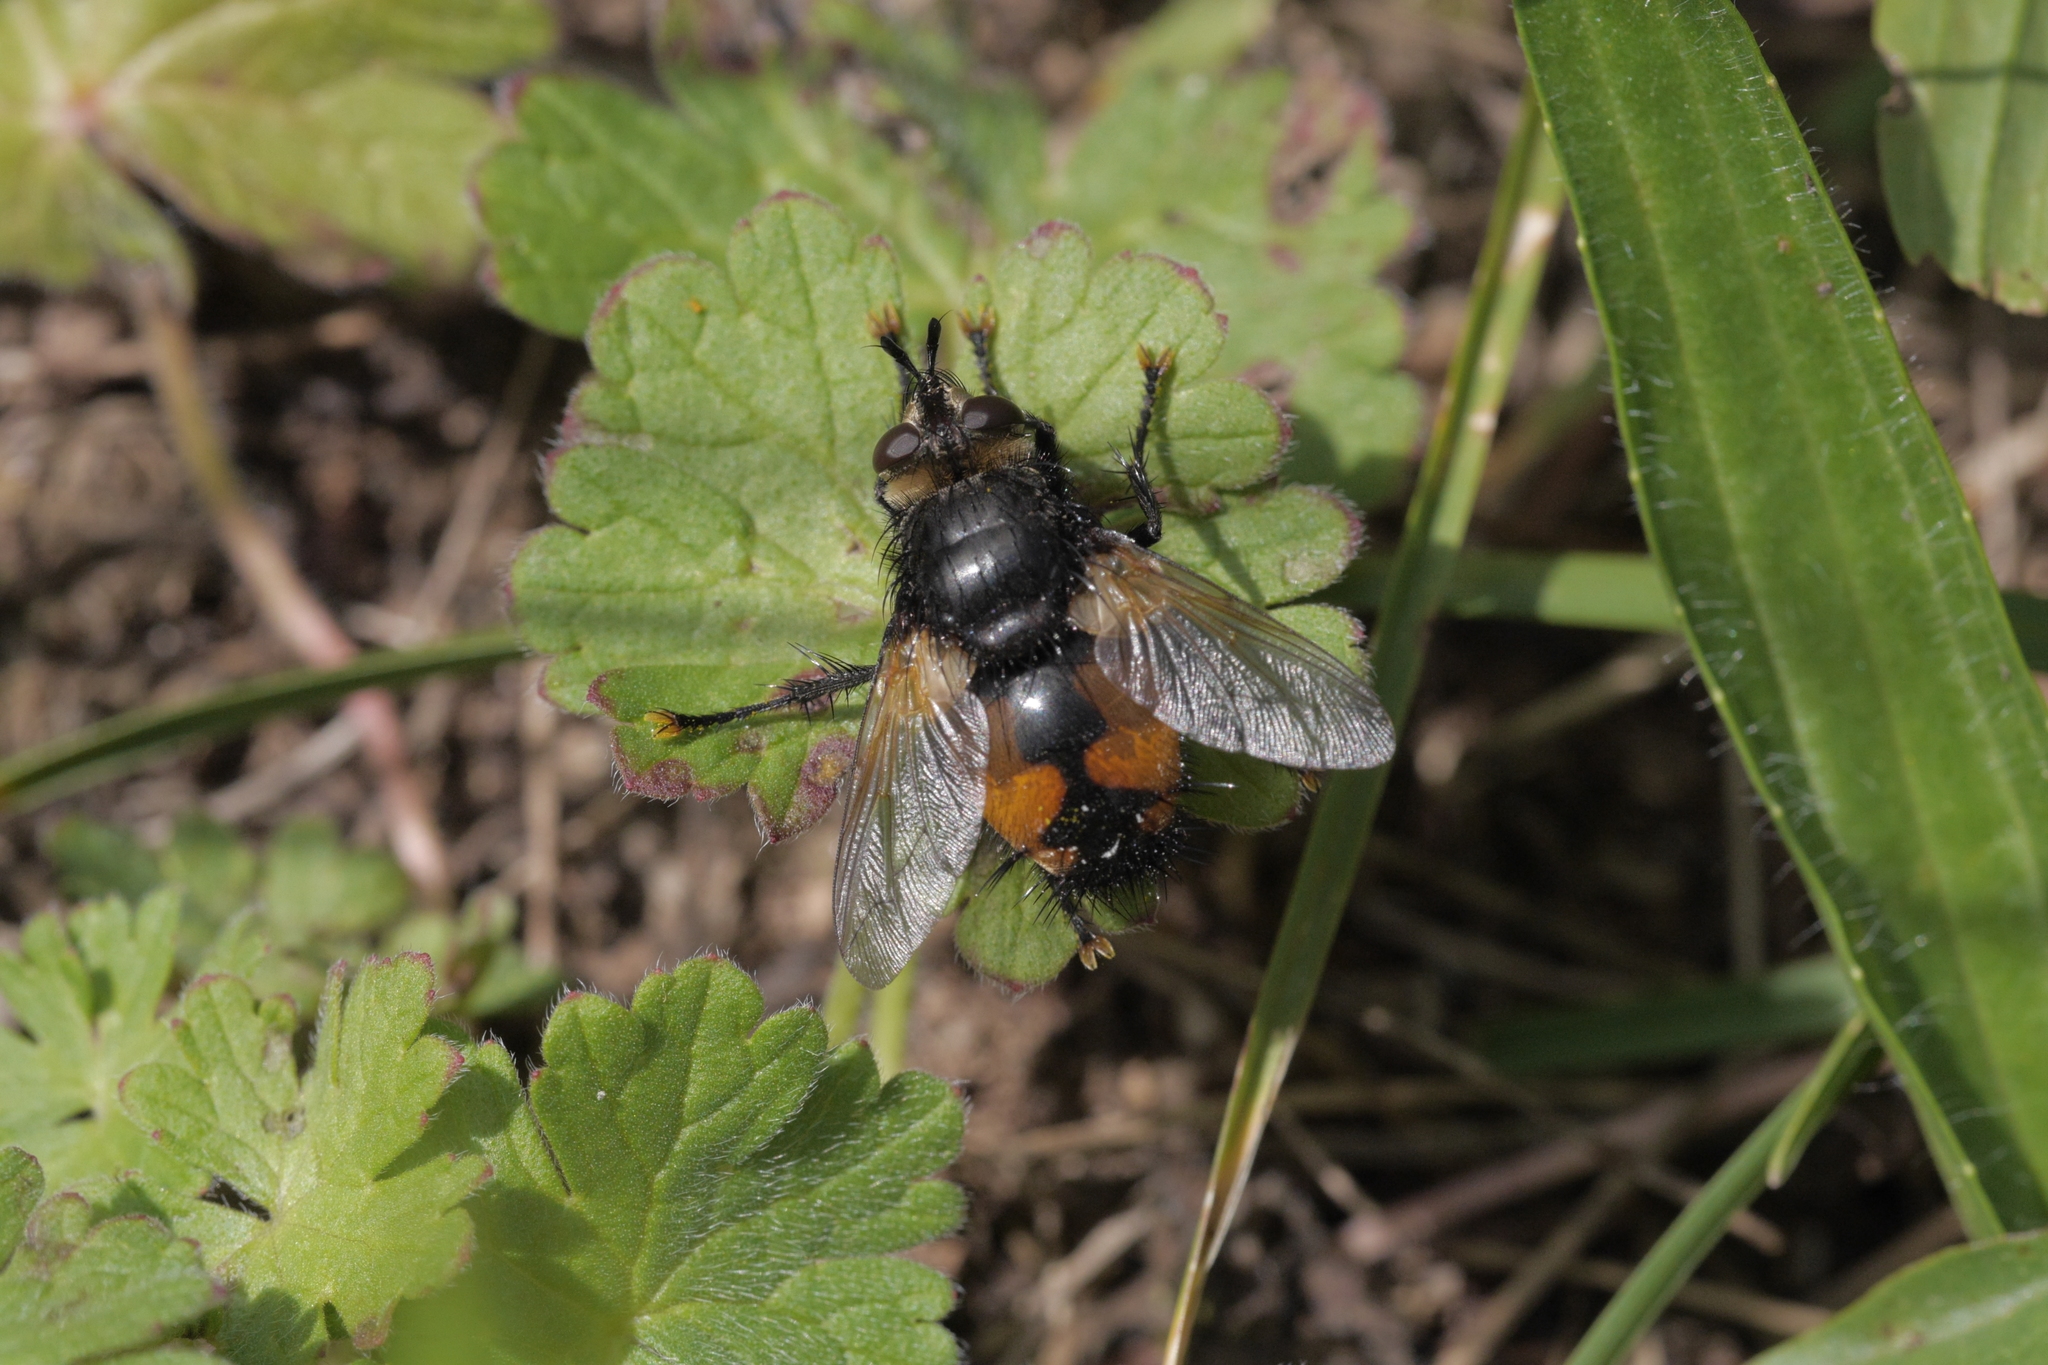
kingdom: Animalia
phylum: Arthropoda
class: Insecta
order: Diptera
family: Tachinidae
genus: Nowickia
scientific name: Nowickia ferox
